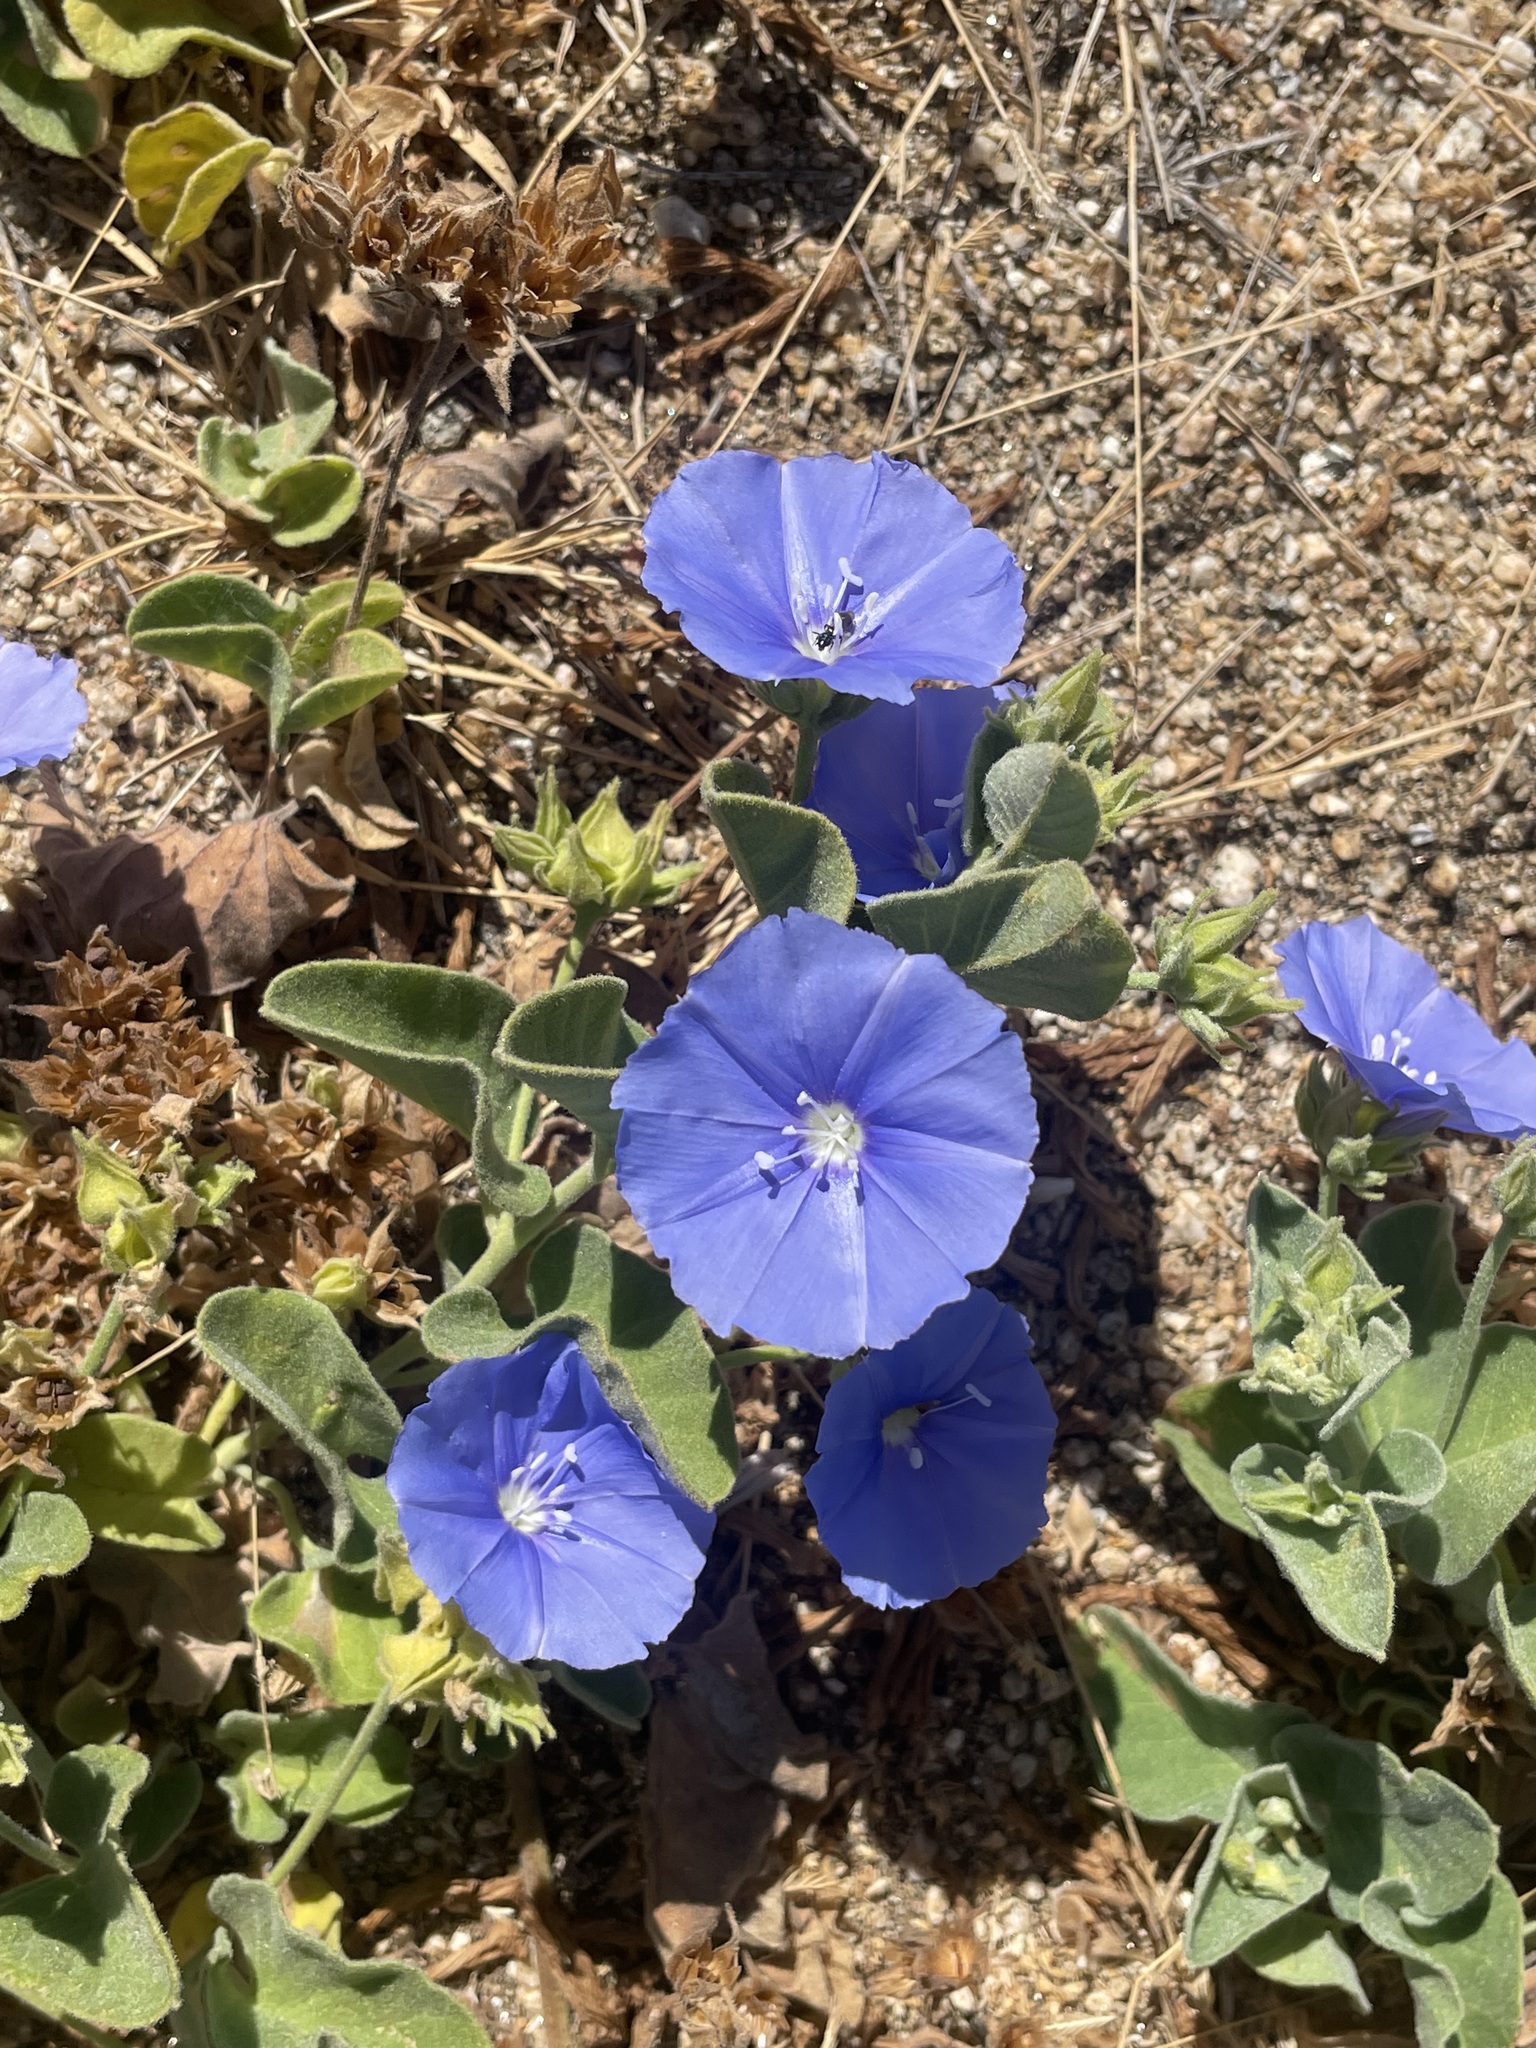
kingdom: Plantae
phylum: Tracheophyta
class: Magnoliopsida
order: Solanales
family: Convolvulaceae
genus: Jacquemontia
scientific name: Jacquemontia abutiloides
